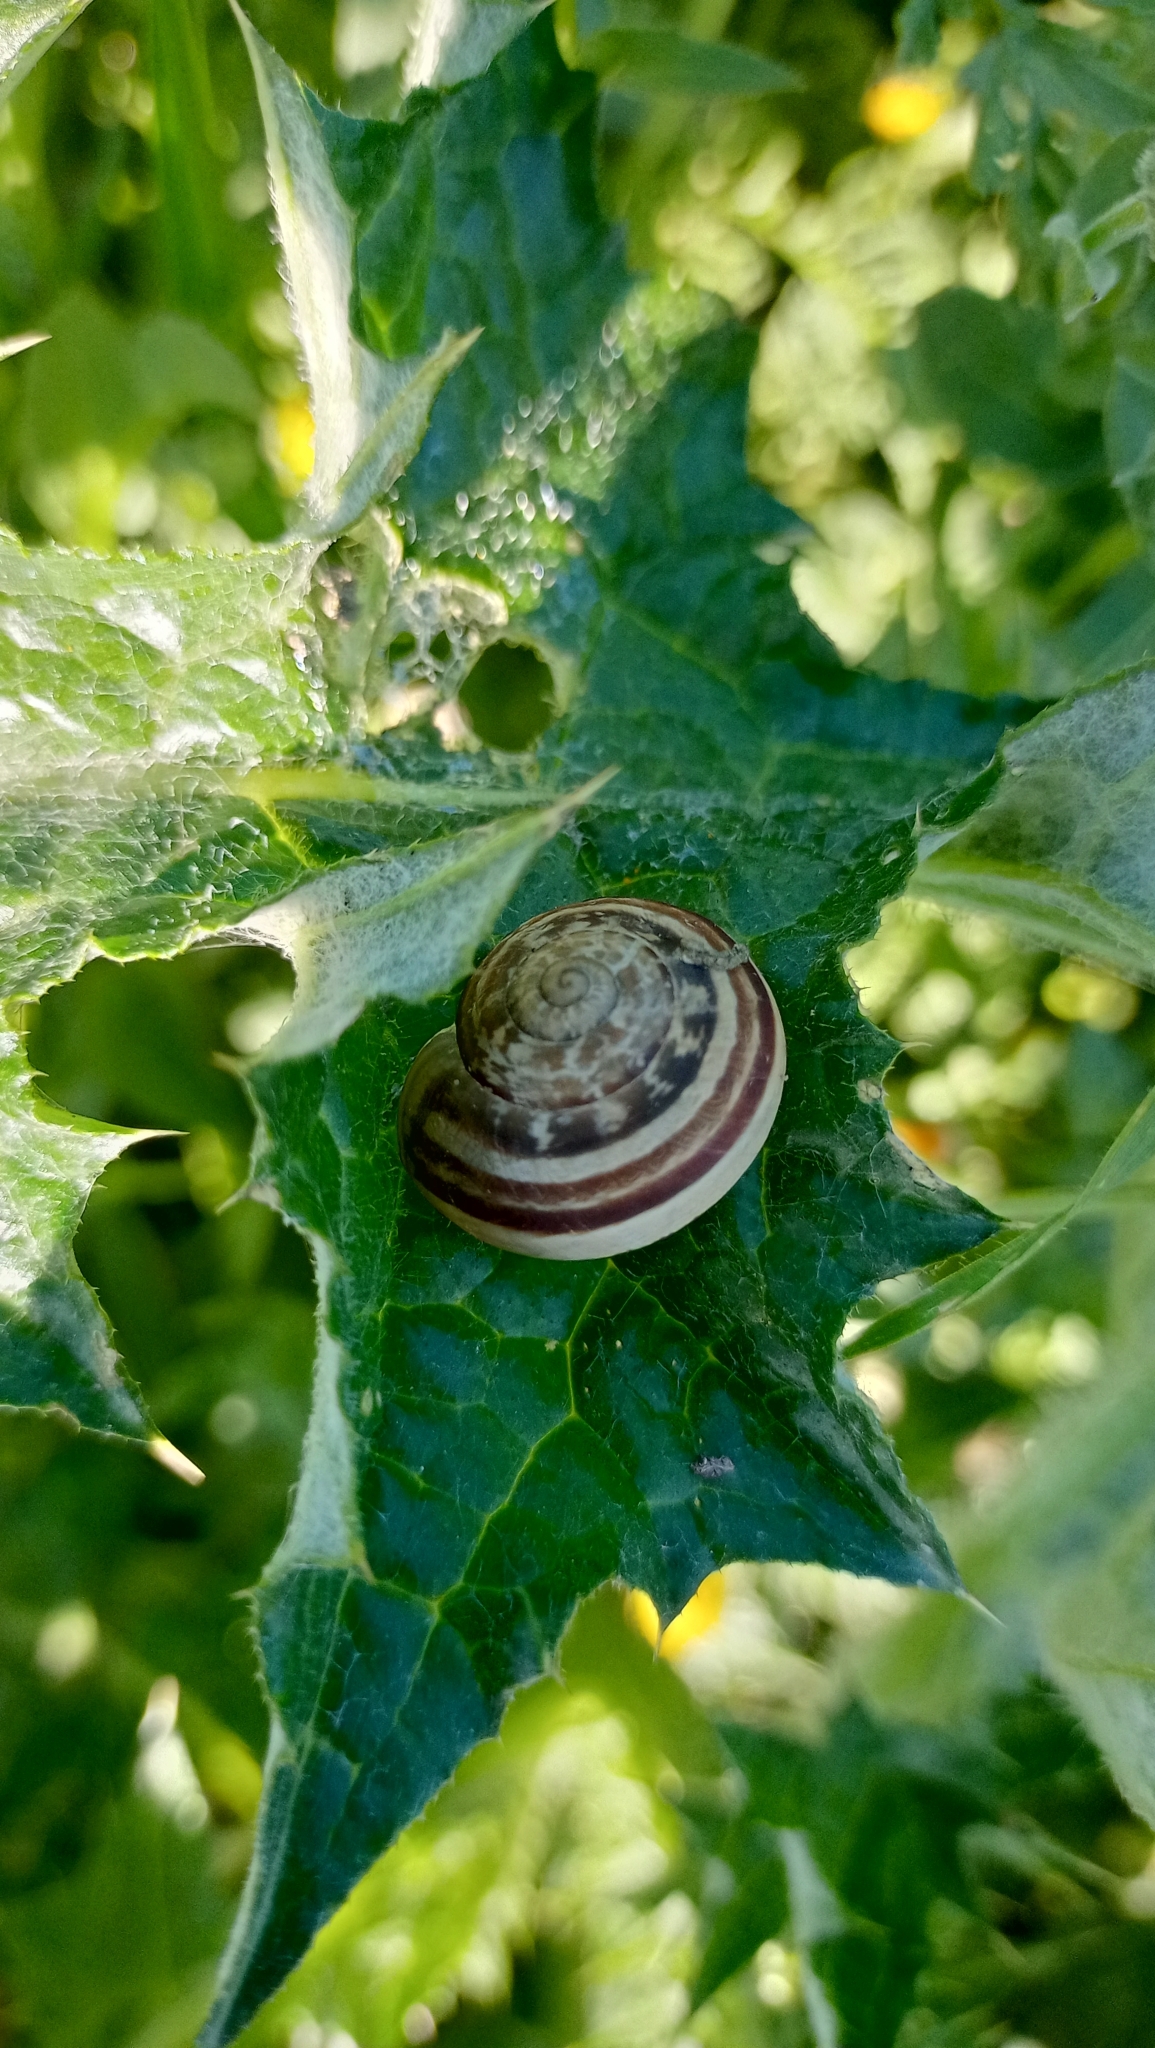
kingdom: Animalia
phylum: Mollusca
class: Gastropoda
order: Stylommatophora
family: Helicidae
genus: Eobania
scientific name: Eobania vermiculata
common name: Chocolateband snail
